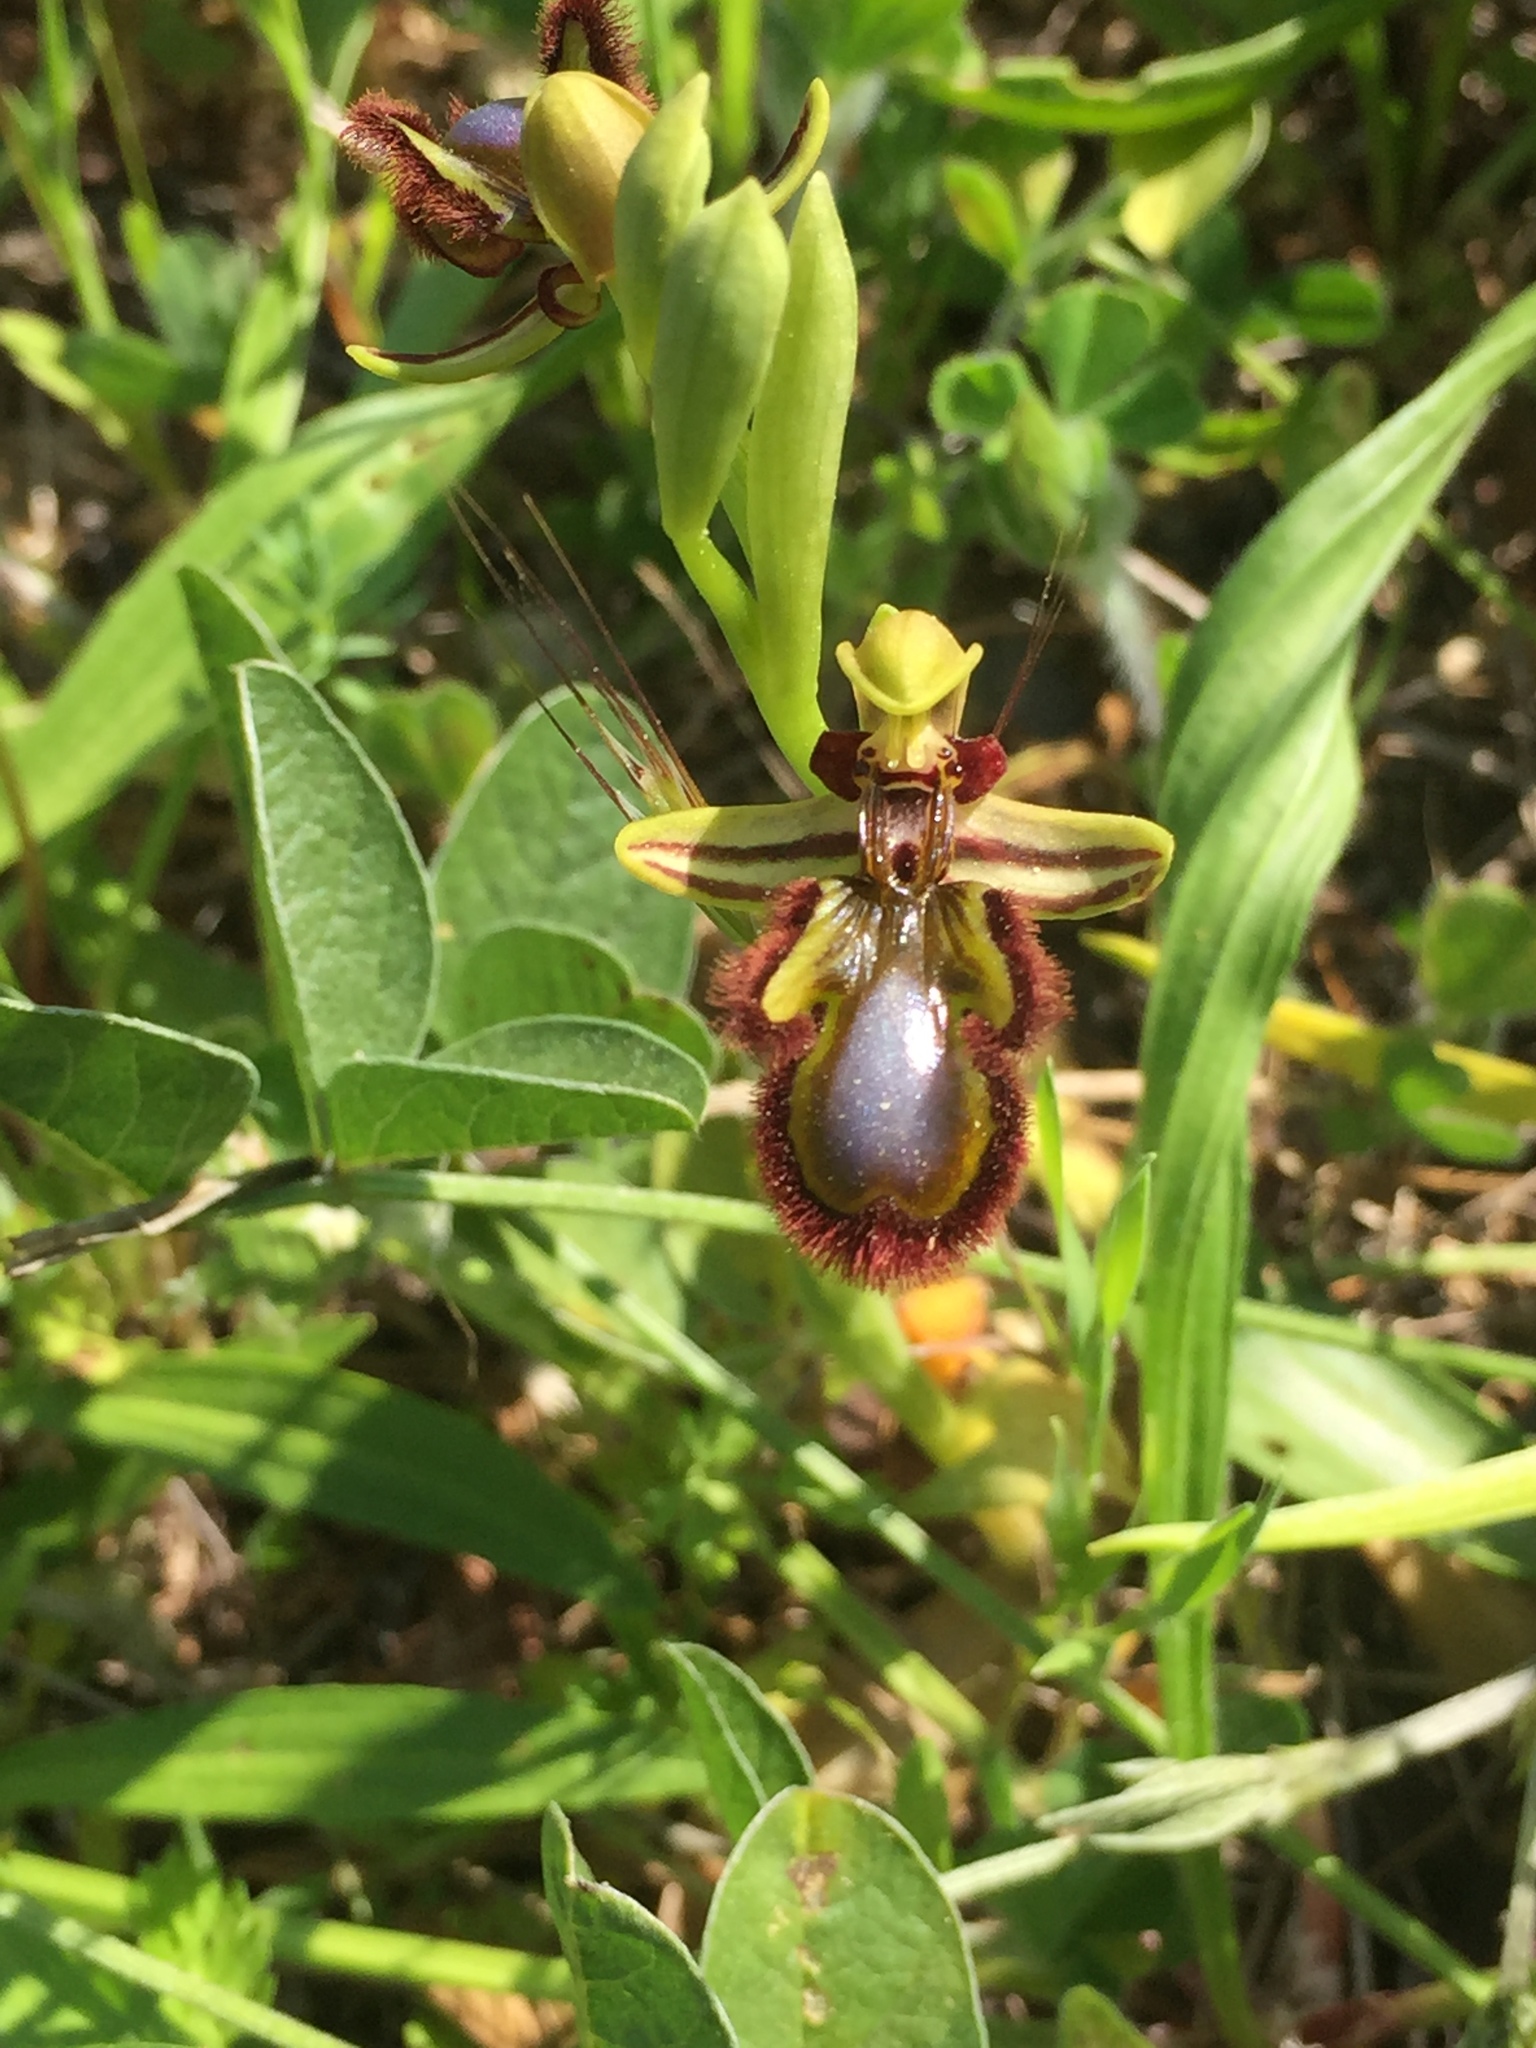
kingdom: Plantae
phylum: Tracheophyta
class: Liliopsida
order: Asparagales
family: Orchidaceae
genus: Ophrys
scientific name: Ophrys speculum
